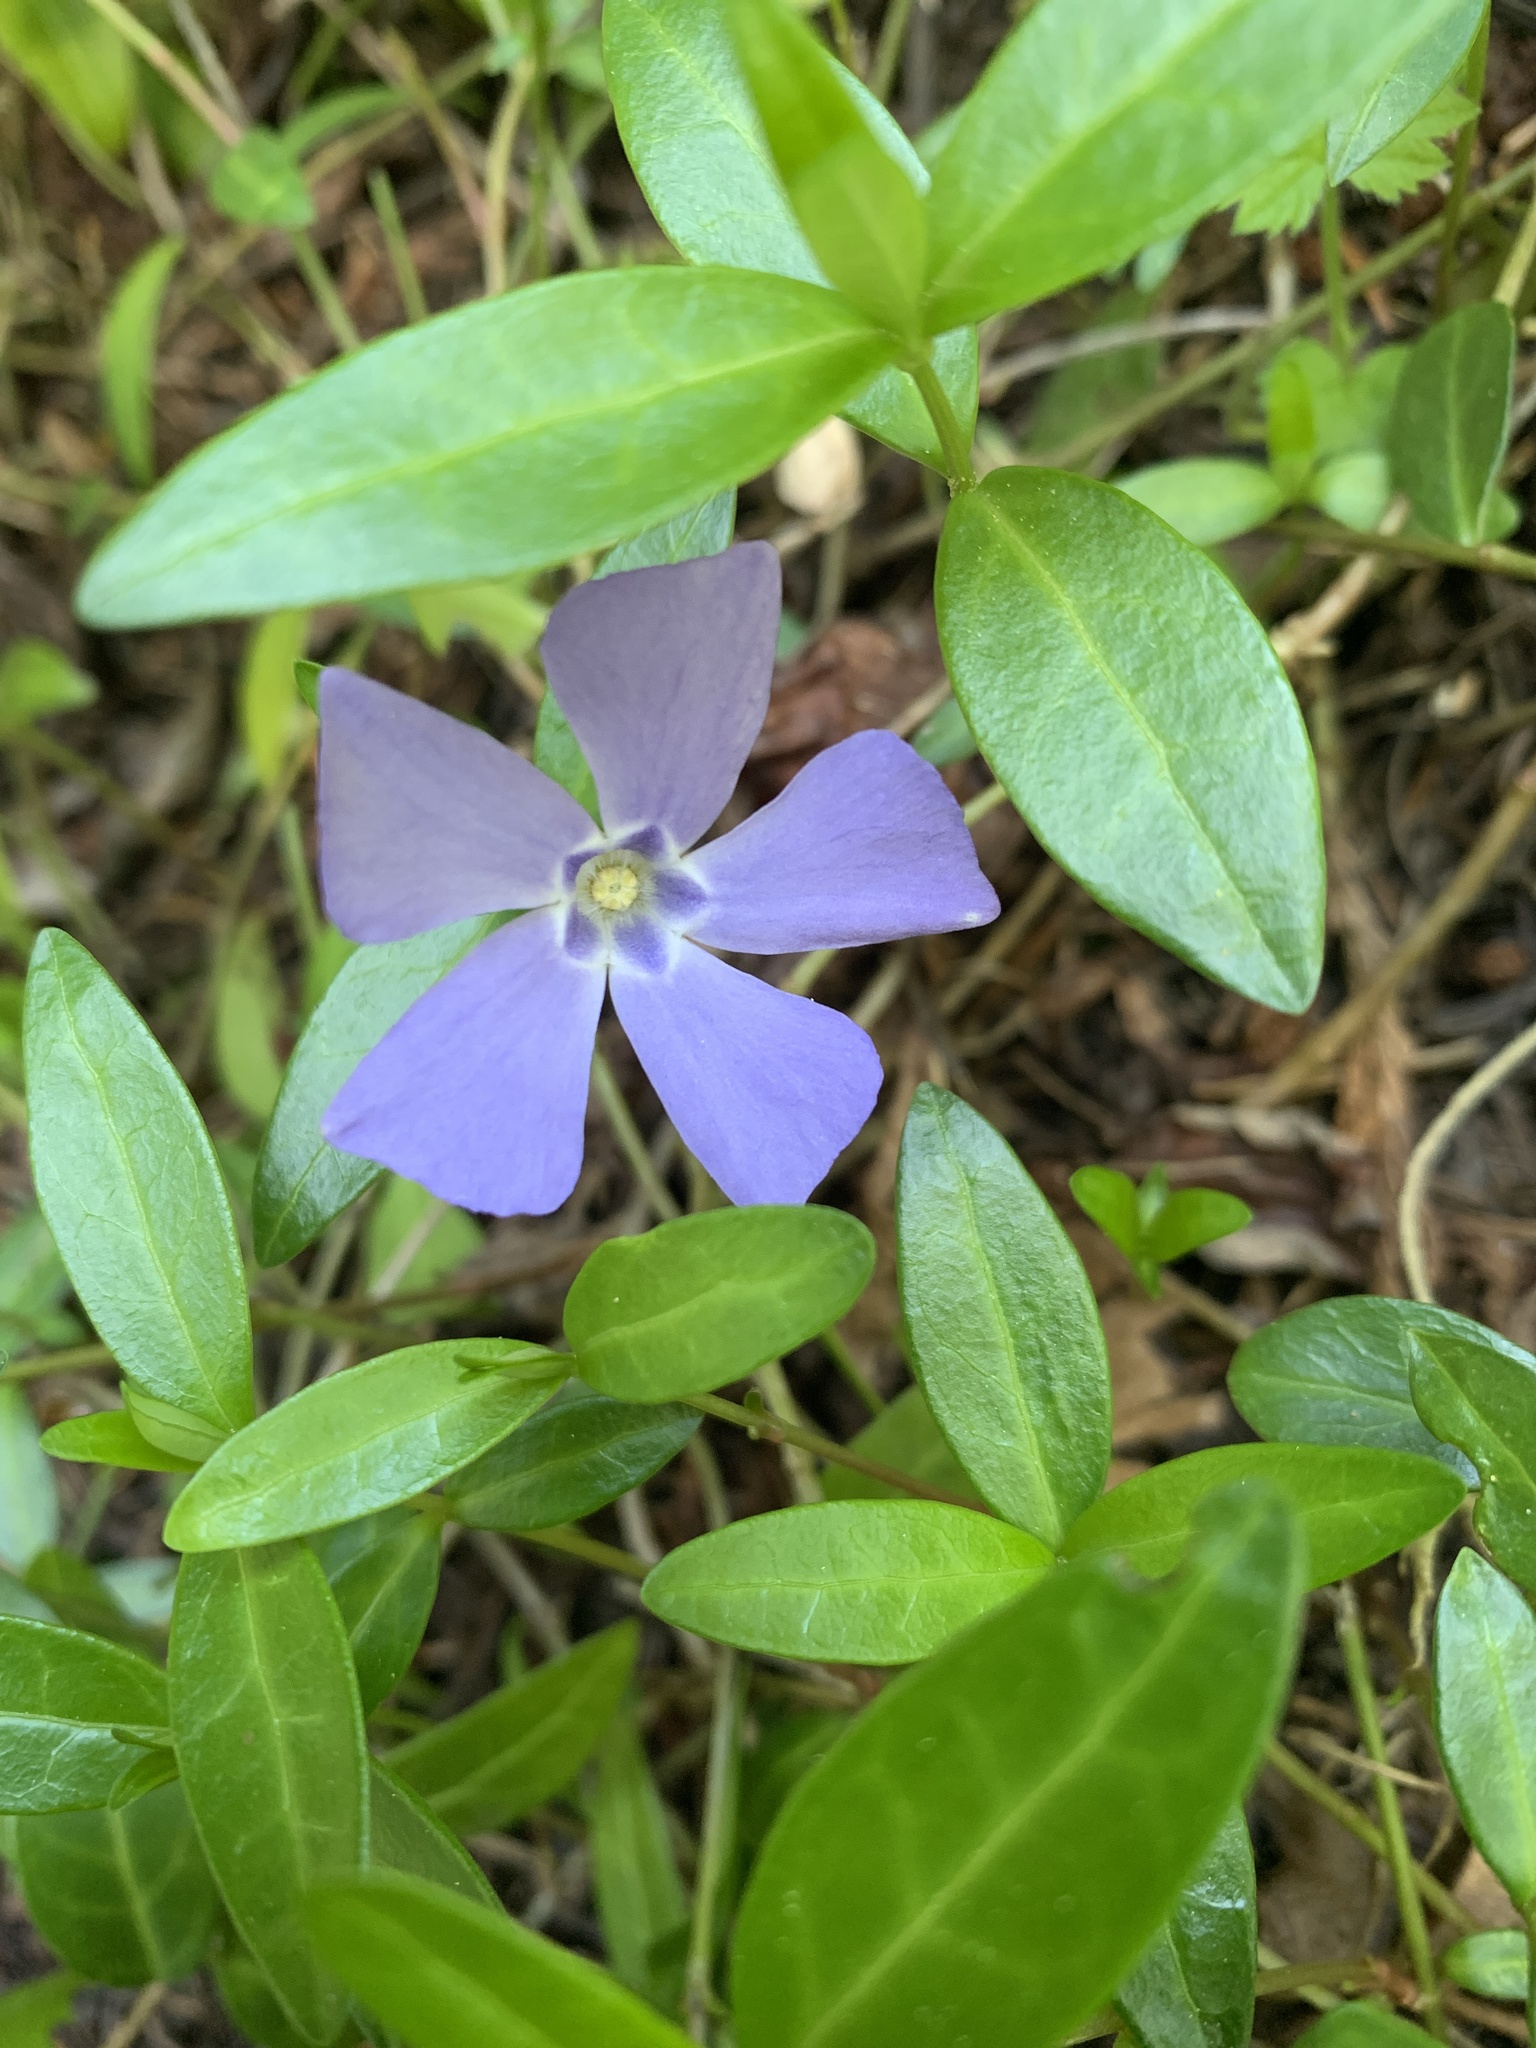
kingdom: Plantae
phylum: Tracheophyta
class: Magnoliopsida
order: Gentianales
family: Apocynaceae
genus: Vinca
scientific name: Vinca minor
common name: Lesser periwinkle
